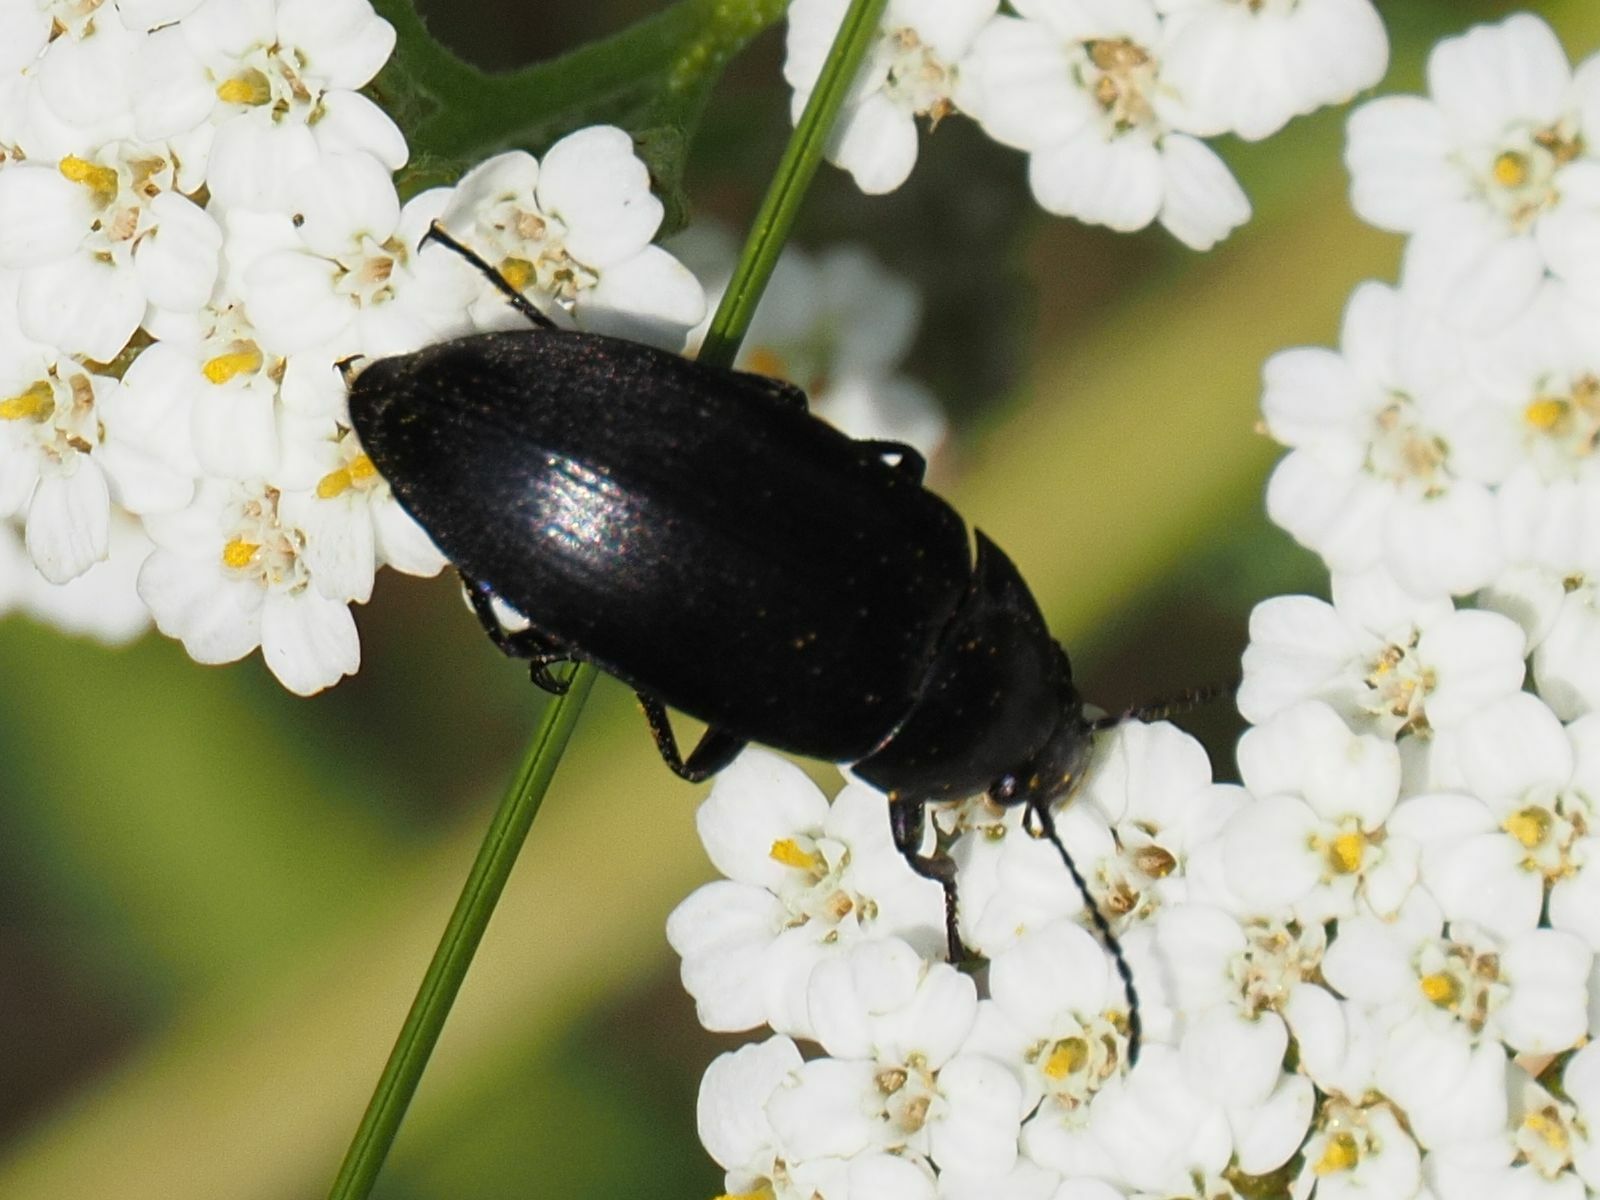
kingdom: Animalia
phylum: Arthropoda
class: Insecta
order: Coleoptera
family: Tenebrionidae
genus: Podonta
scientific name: Podonta nigrita
